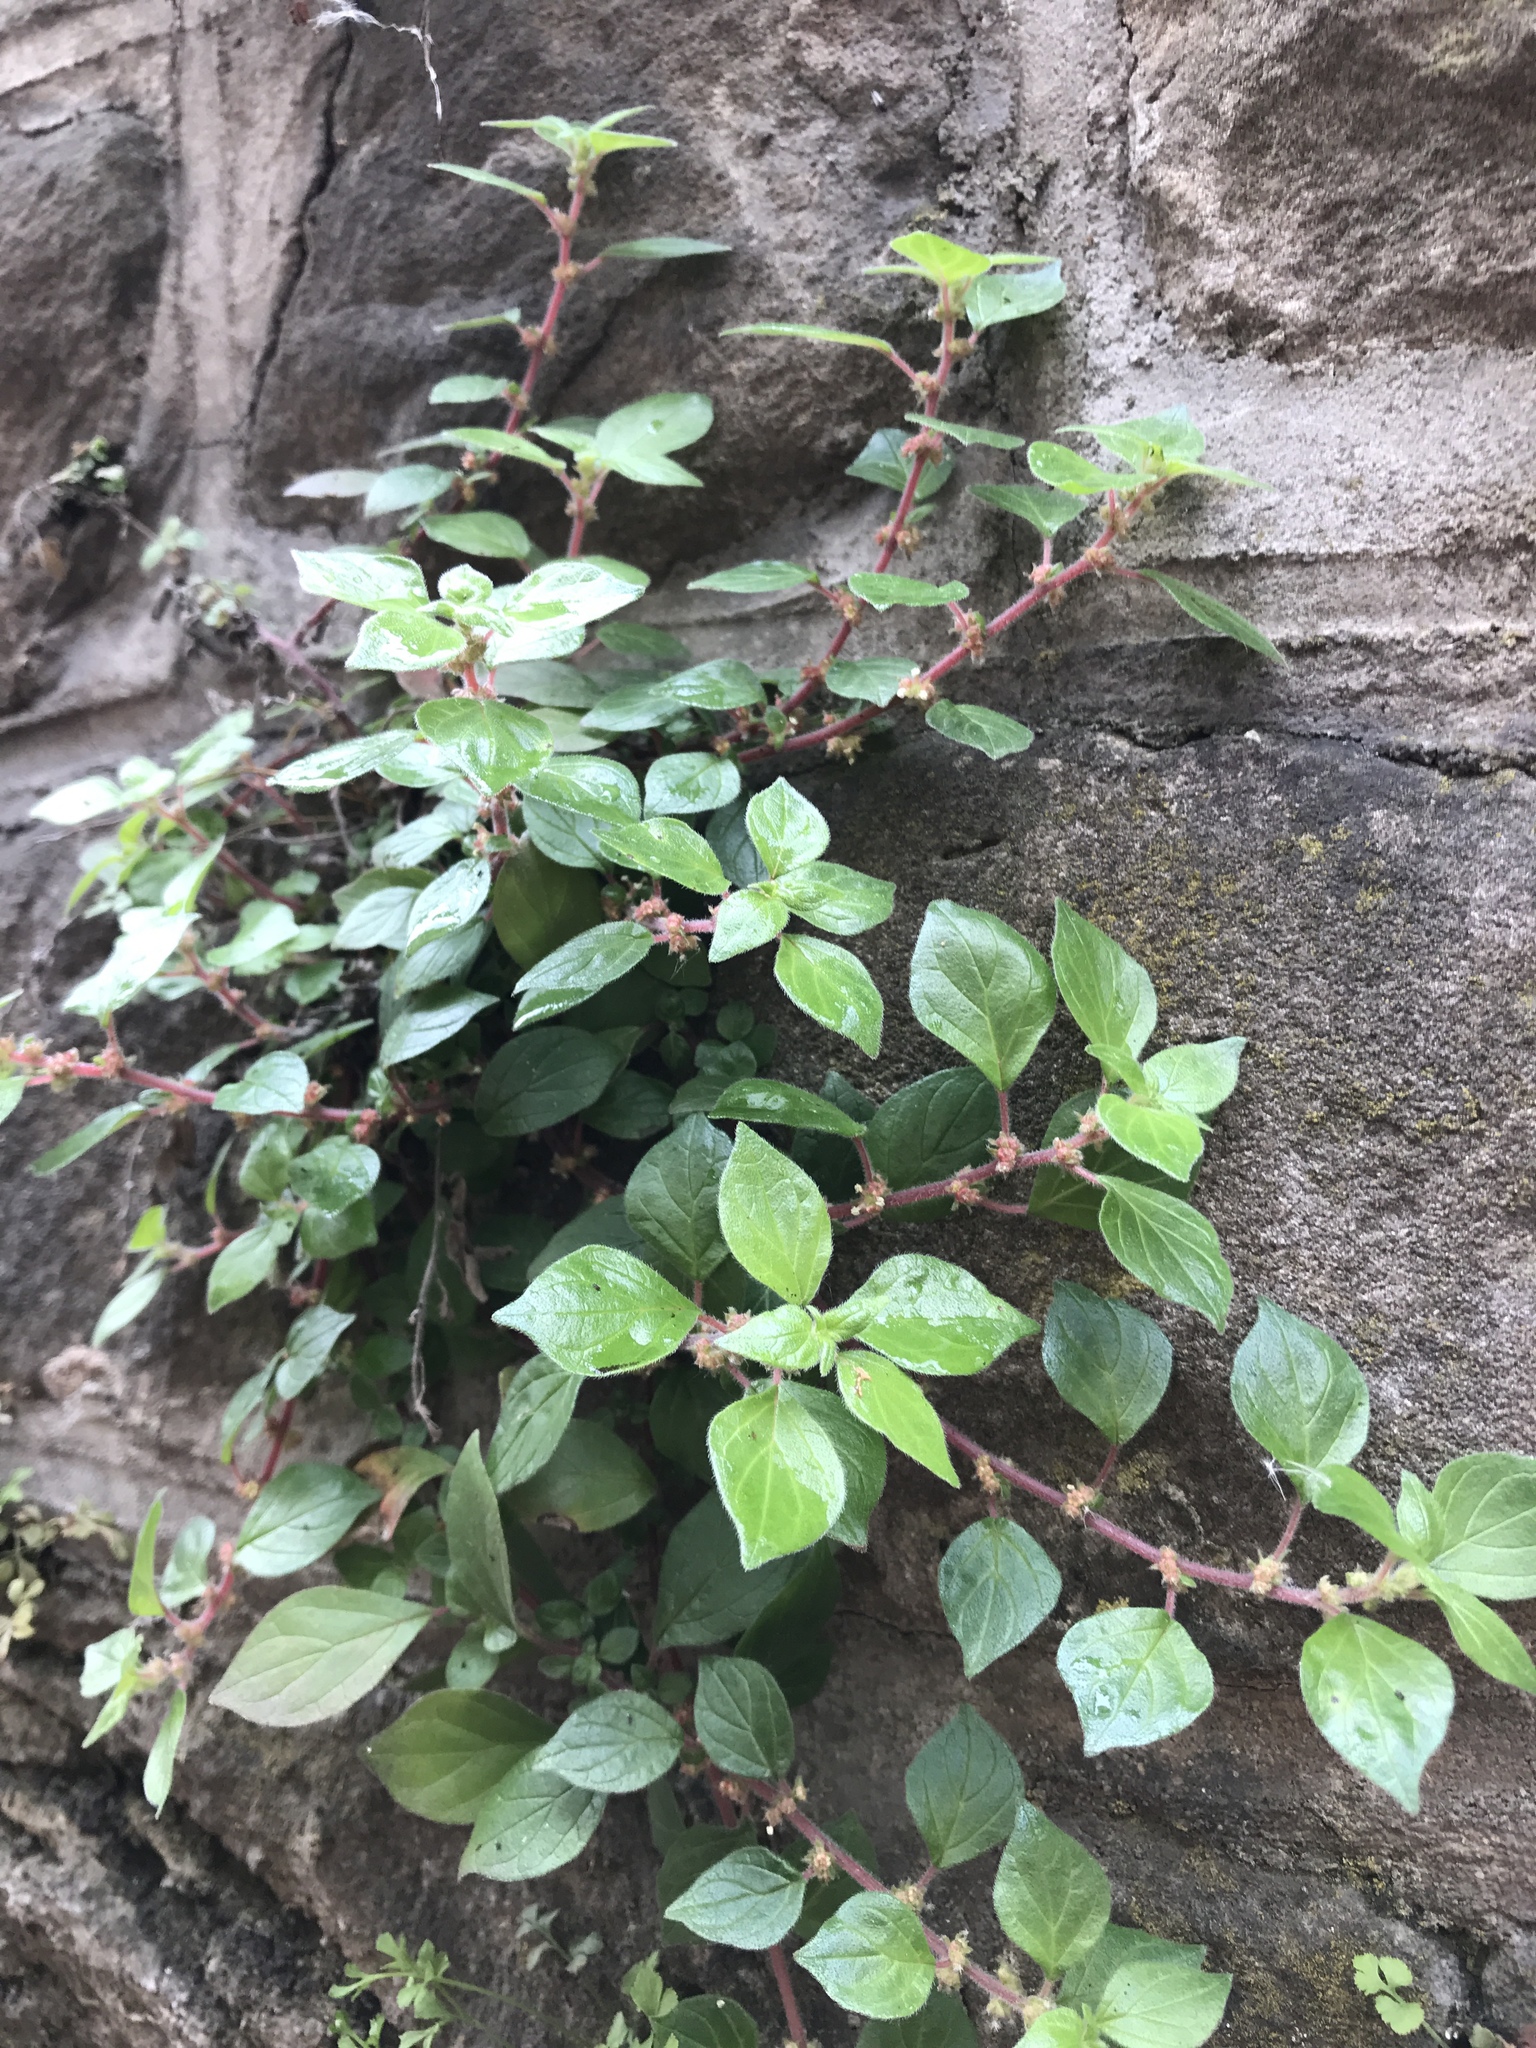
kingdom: Plantae
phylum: Tracheophyta
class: Magnoliopsida
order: Rosales
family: Urticaceae
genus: Parietaria
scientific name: Parietaria judaica
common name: Pellitory-of-the-wall
